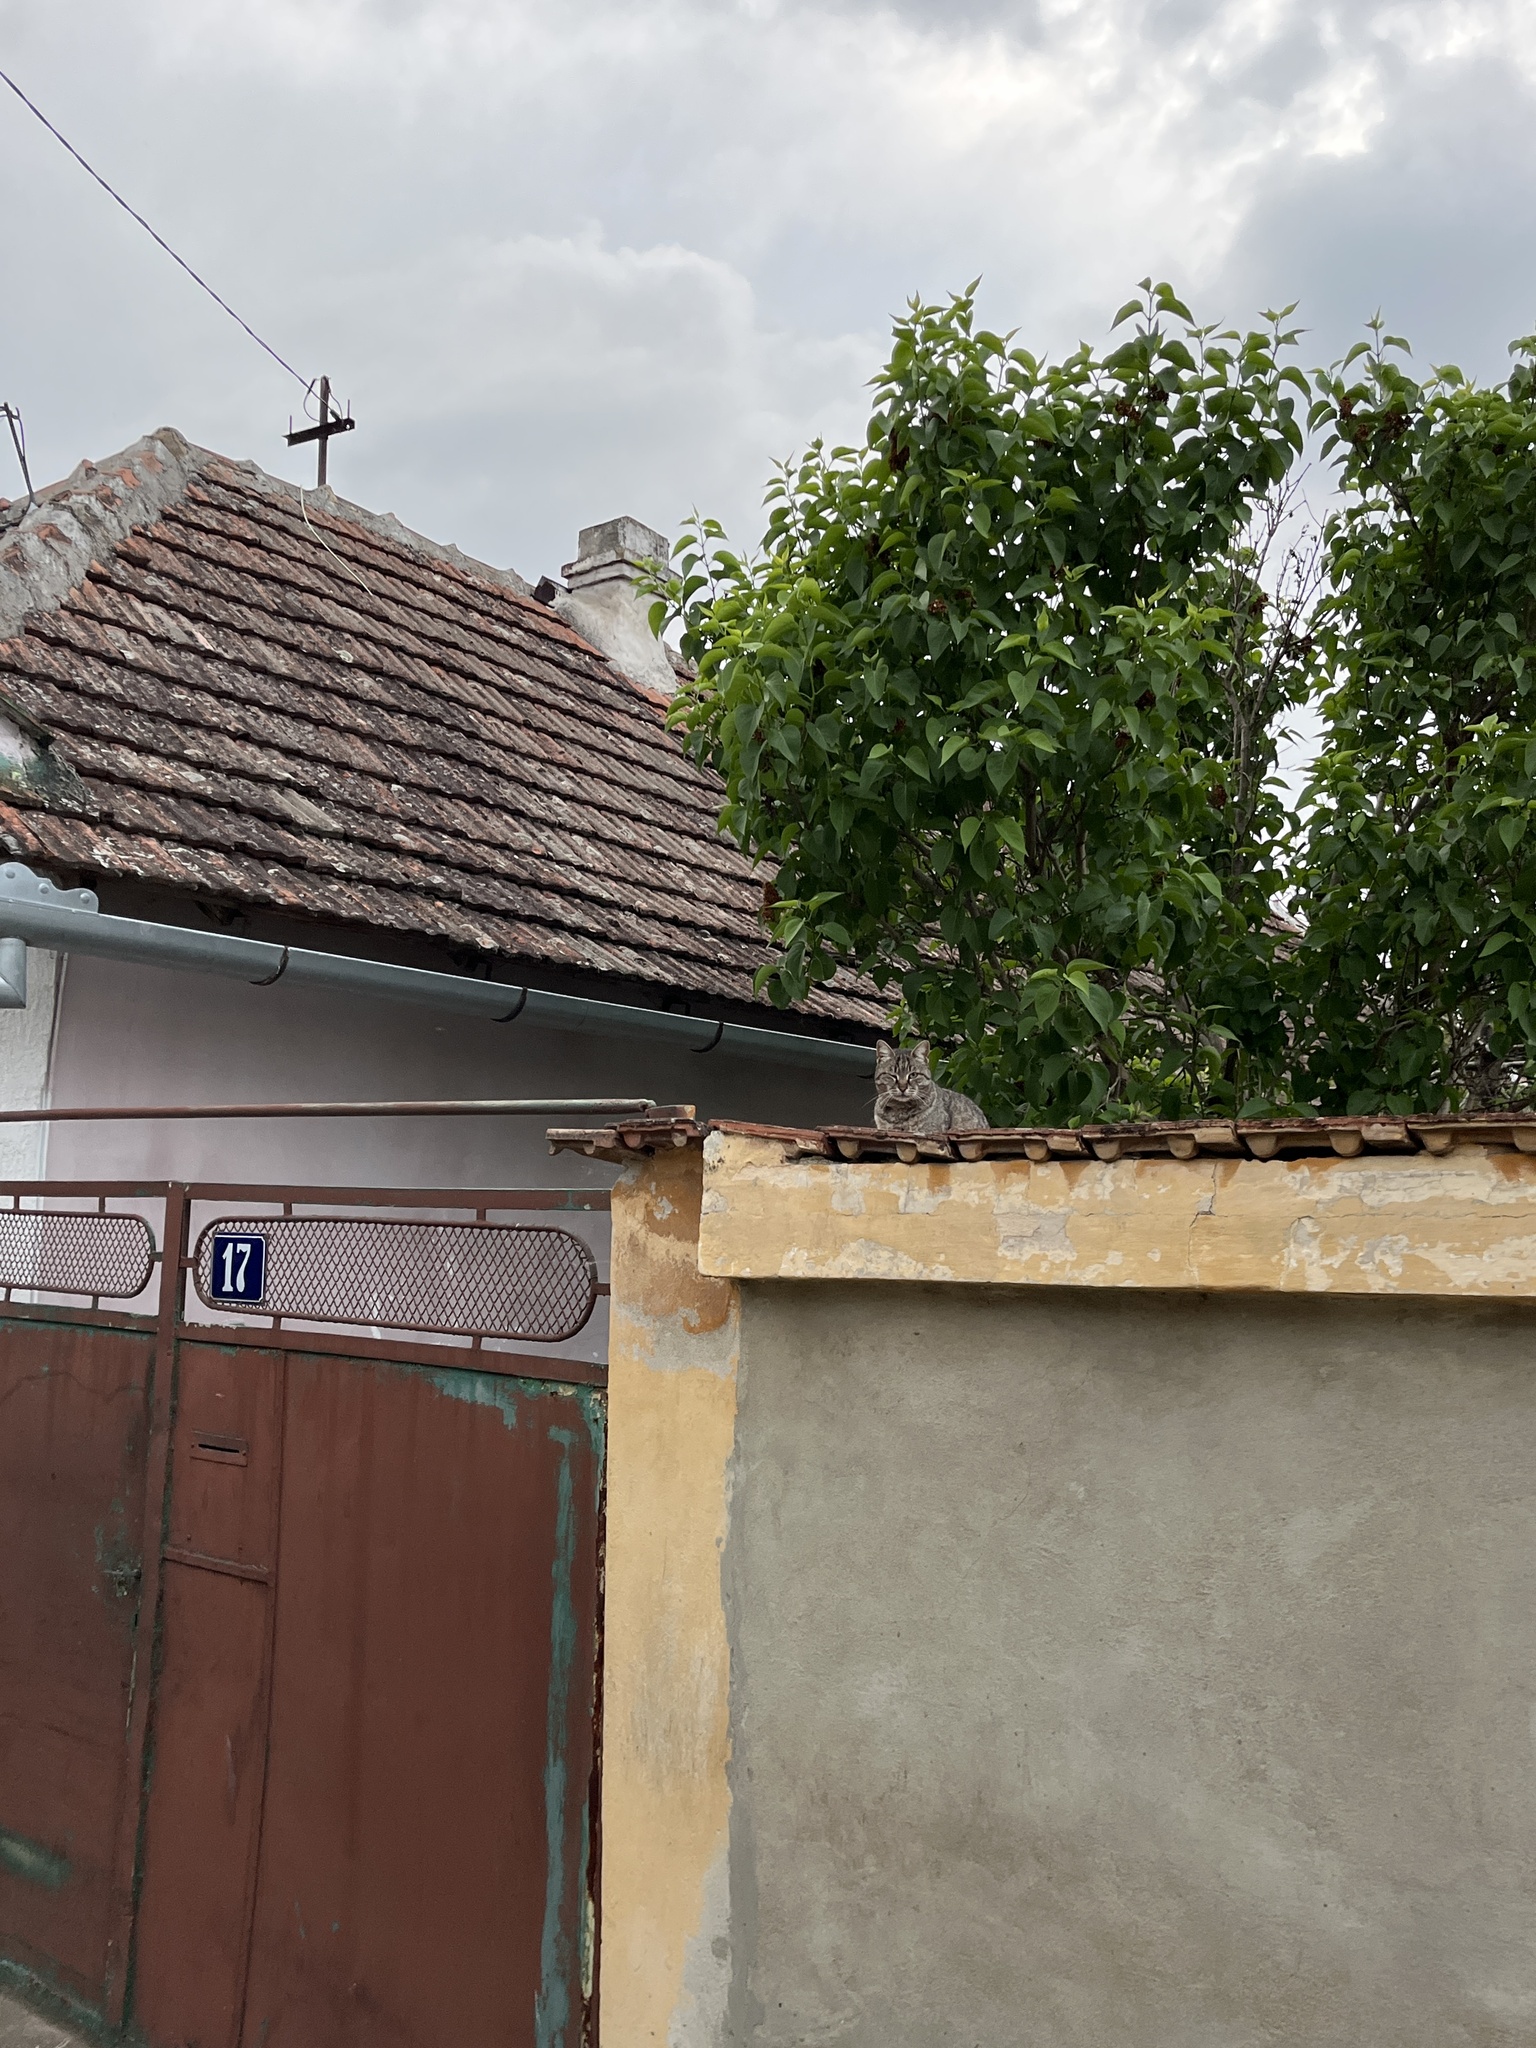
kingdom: Animalia
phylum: Chordata
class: Mammalia
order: Carnivora
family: Felidae
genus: Felis
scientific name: Felis catus
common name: Domestic cat
